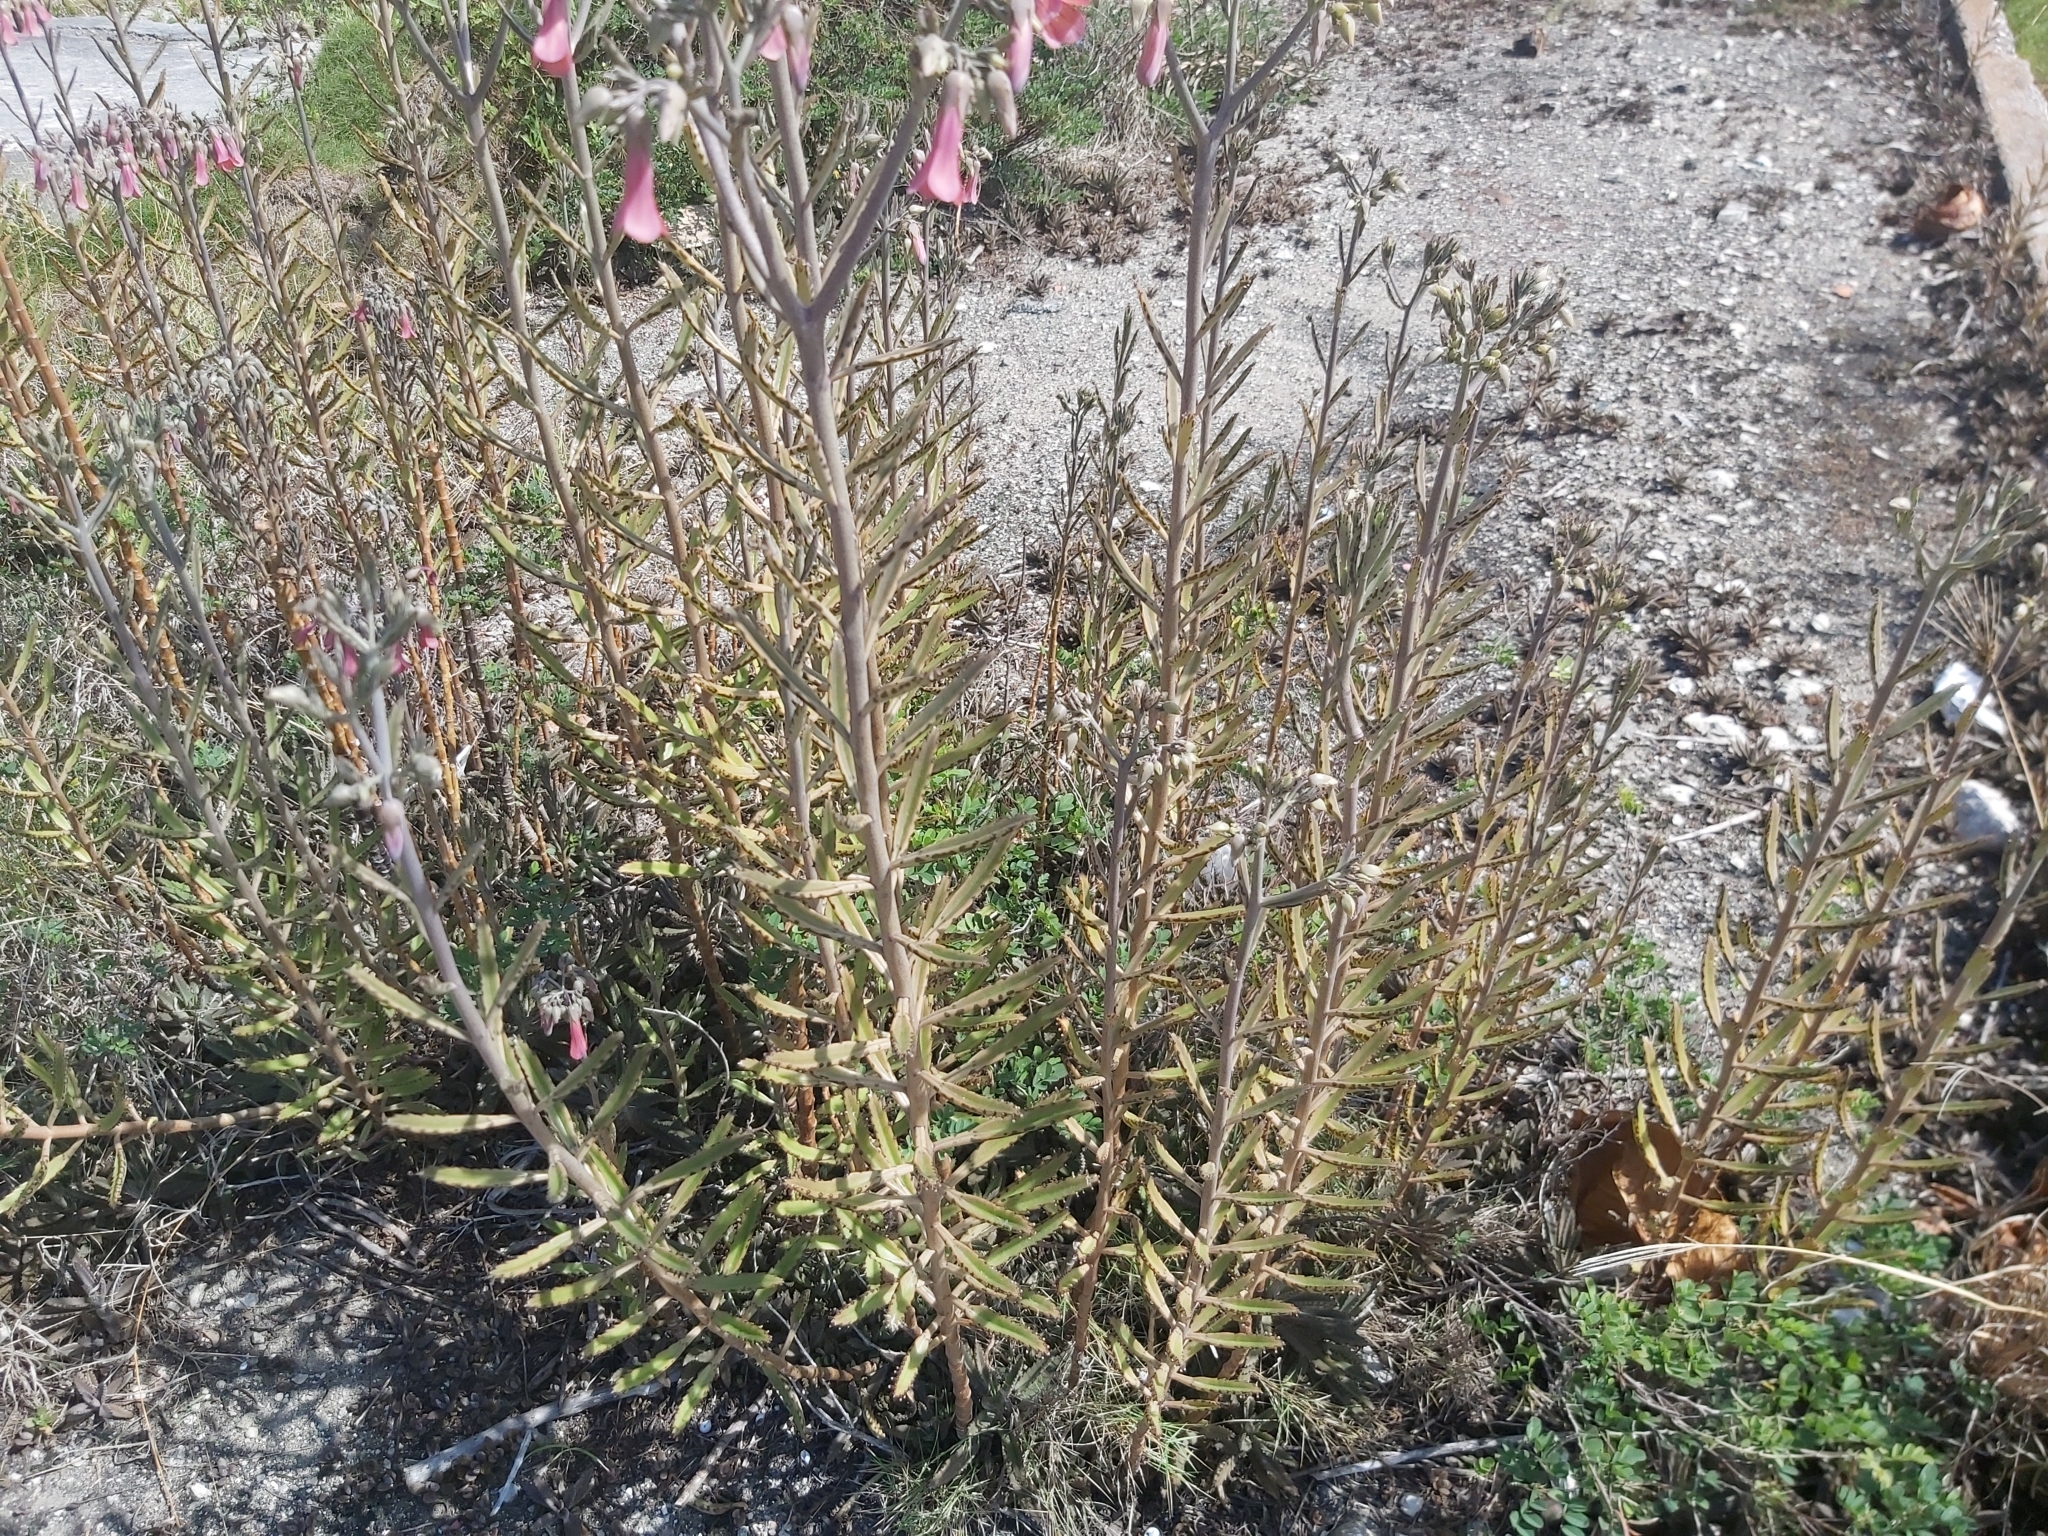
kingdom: Plantae
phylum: Tracheophyta
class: Magnoliopsida
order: Saxifragales
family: Crassulaceae
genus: Kalanchoe
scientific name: Kalanchoe houghtonii
